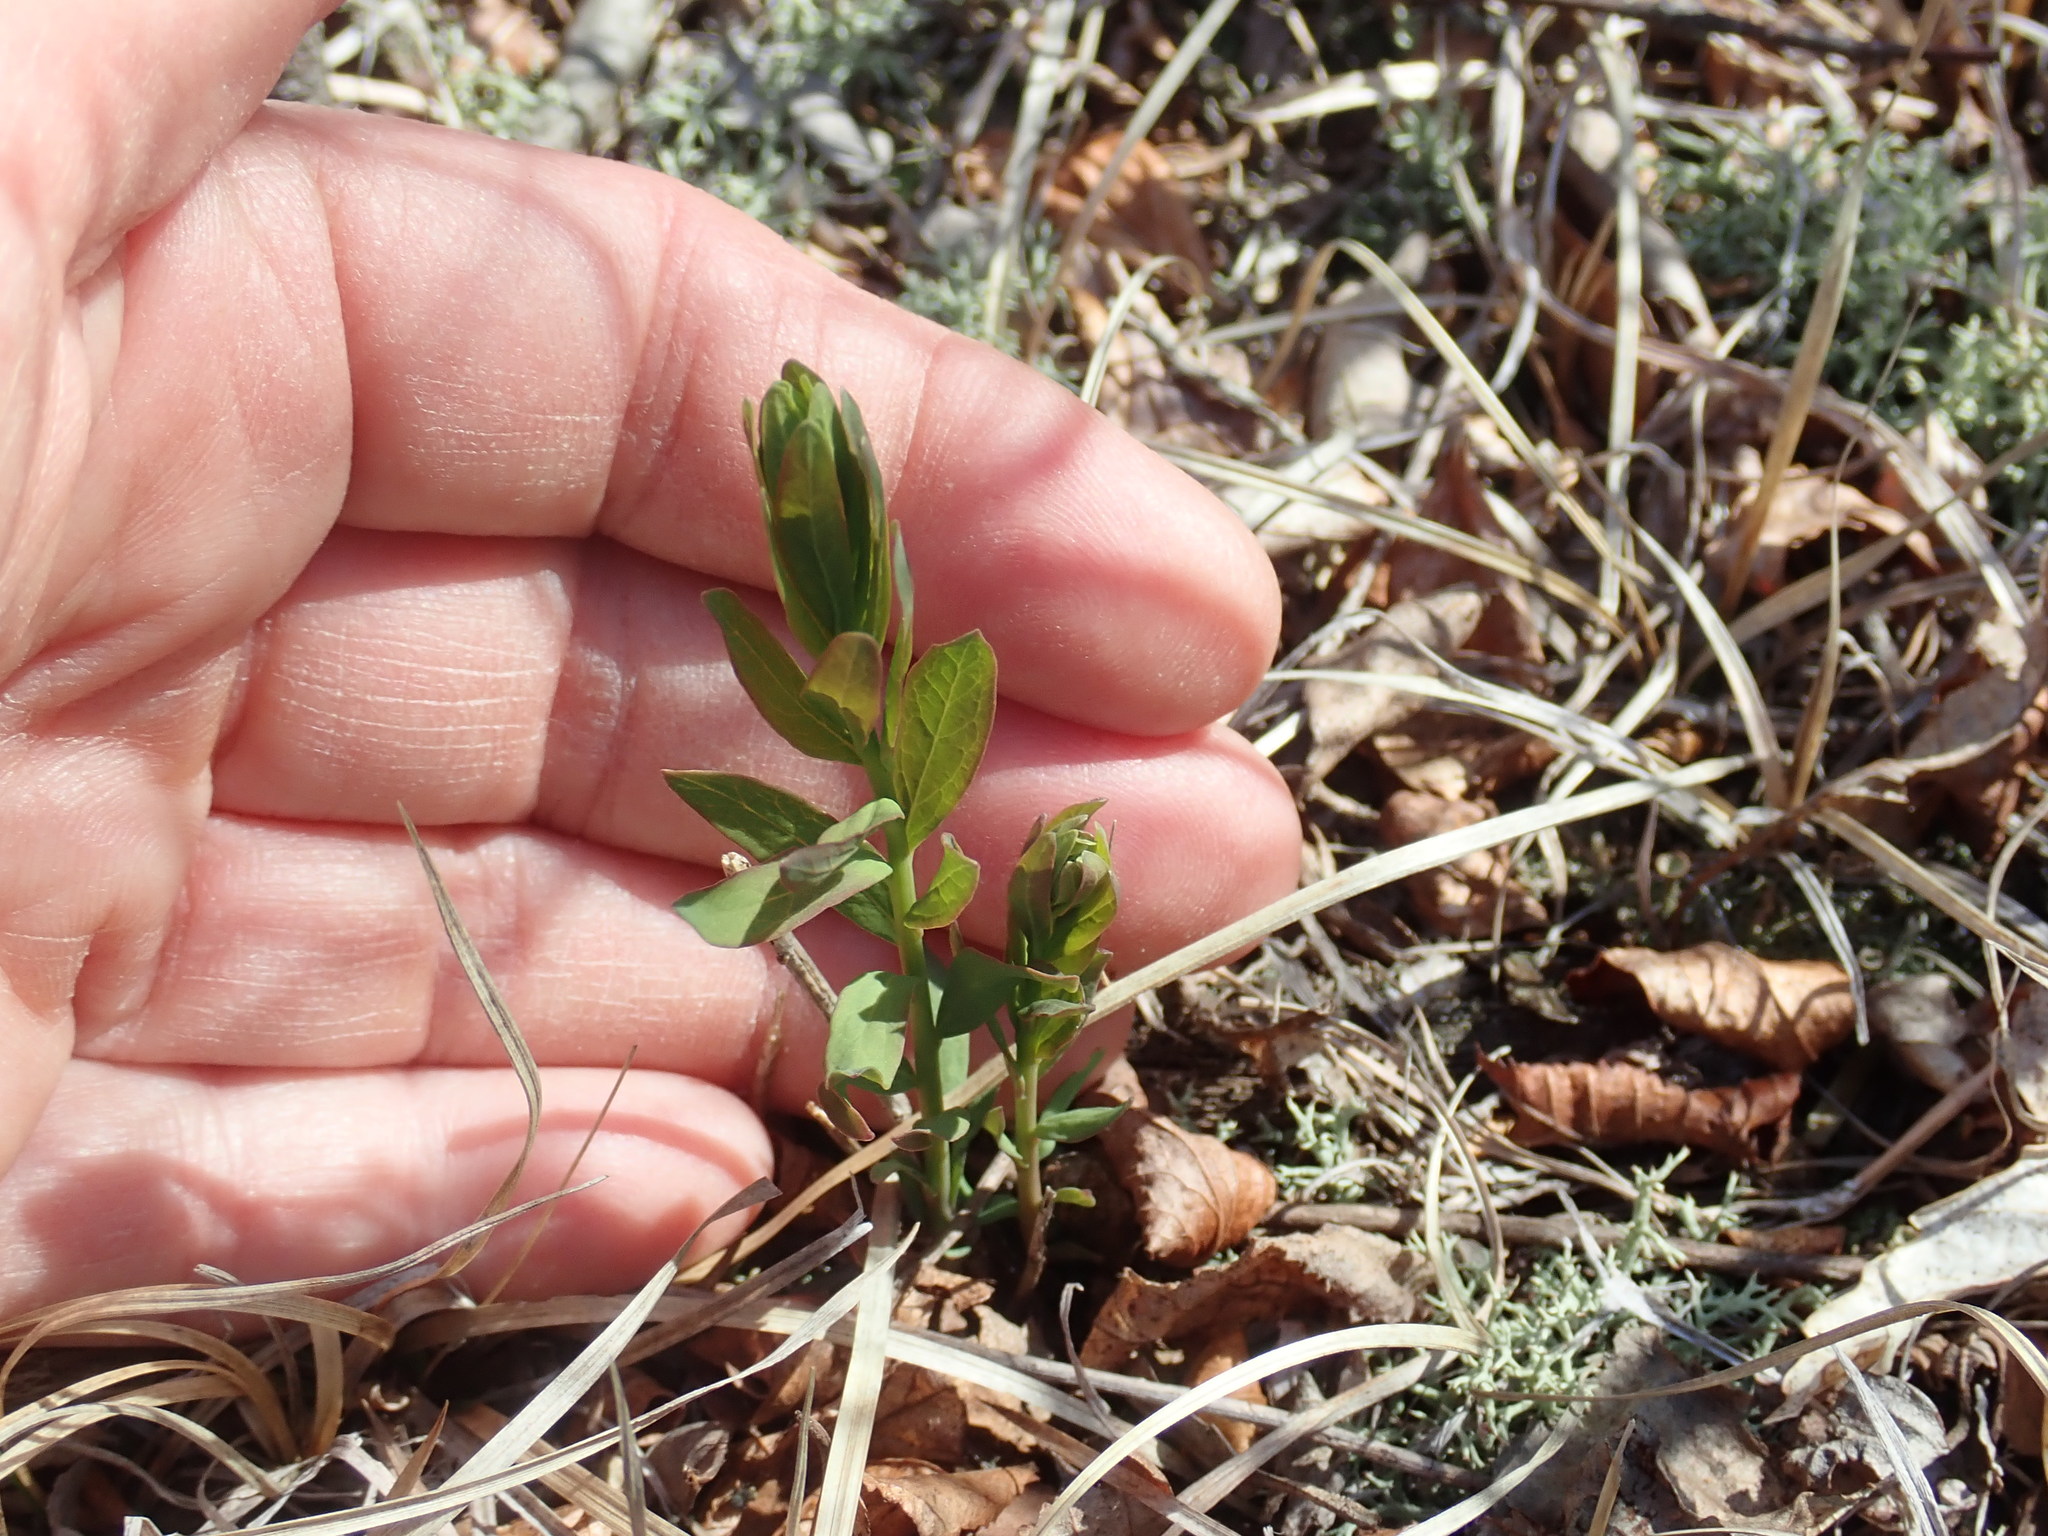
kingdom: Plantae
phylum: Tracheophyta
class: Magnoliopsida
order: Santalales
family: Comandraceae
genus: Comandra
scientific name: Comandra umbellata
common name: Bastard toadflax
